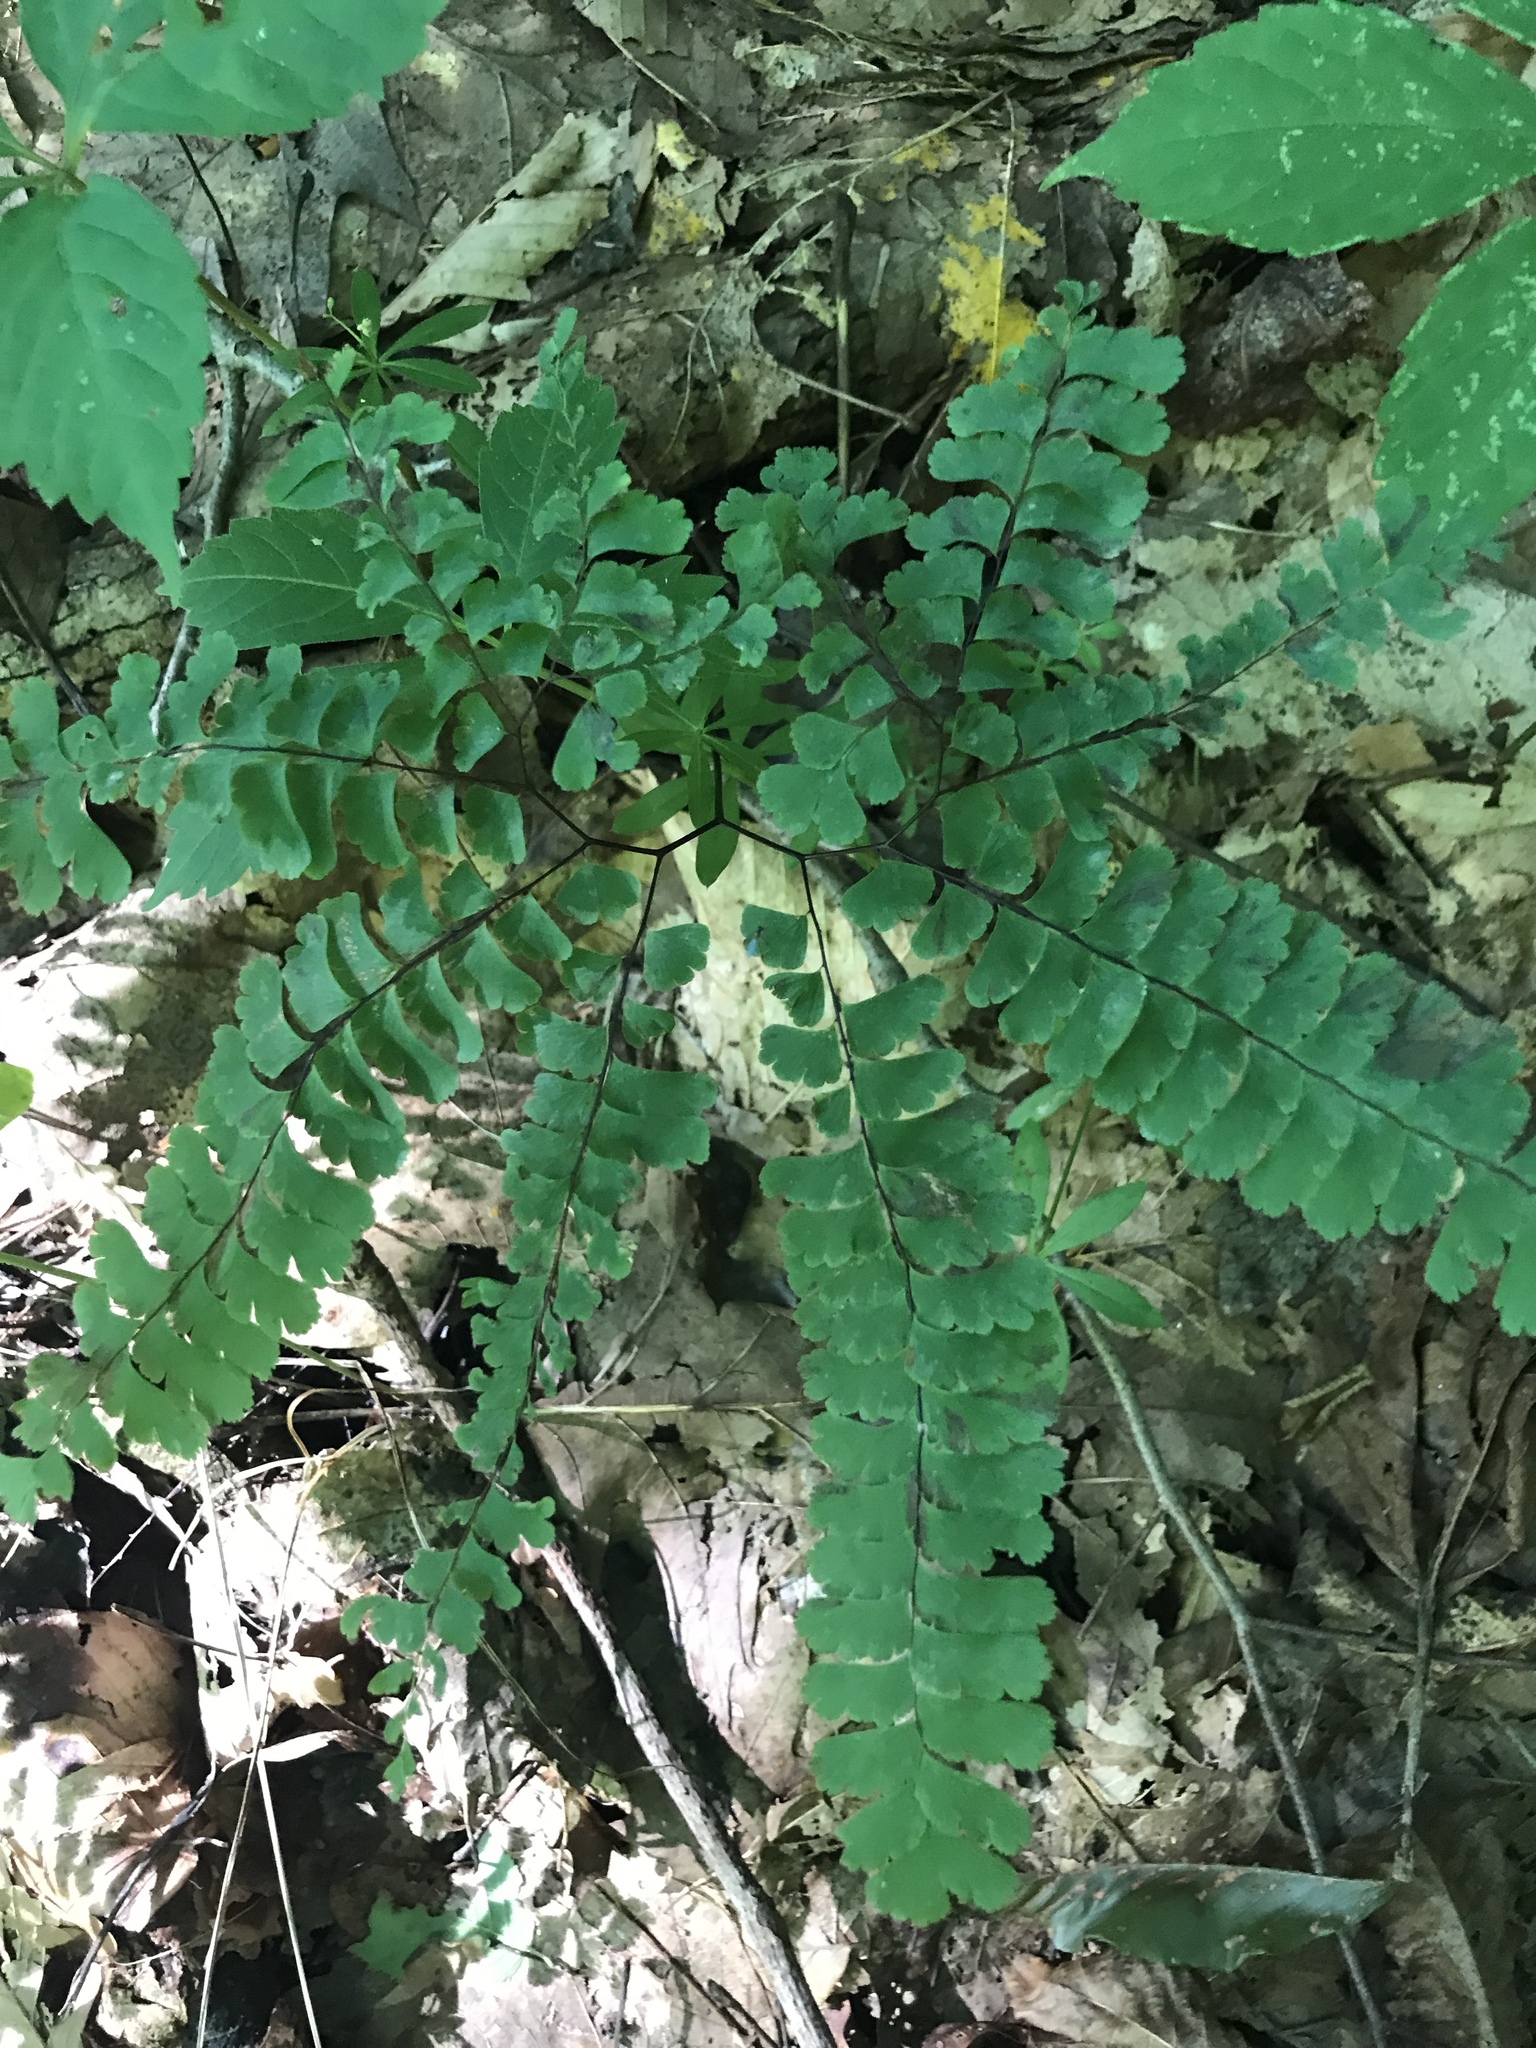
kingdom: Plantae
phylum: Tracheophyta
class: Polypodiopsida
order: Polypodiales
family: Pteridaceae
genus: Adiantum
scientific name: Adiantum pedatum
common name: Five-finger fern
